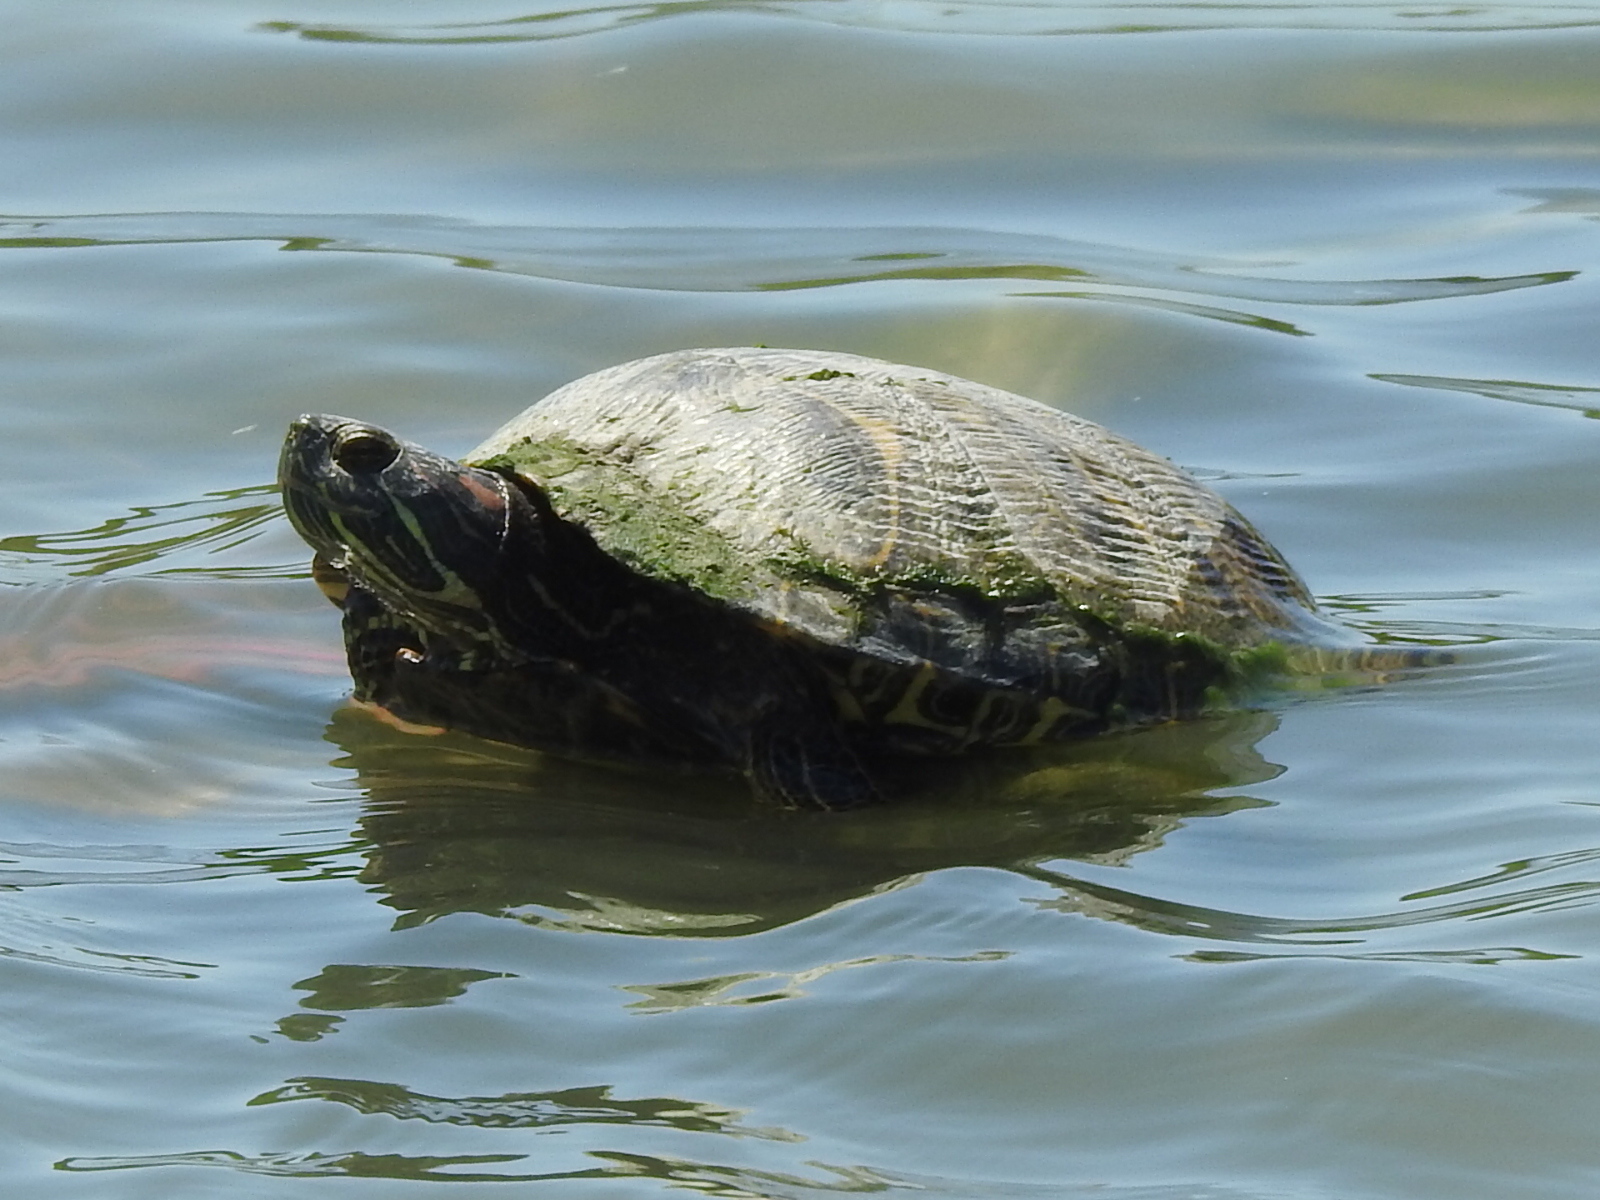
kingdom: Animalia
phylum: Chordata
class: Testudines
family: Emydidae
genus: Trachemys
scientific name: Trachemys scripta
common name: Slider
